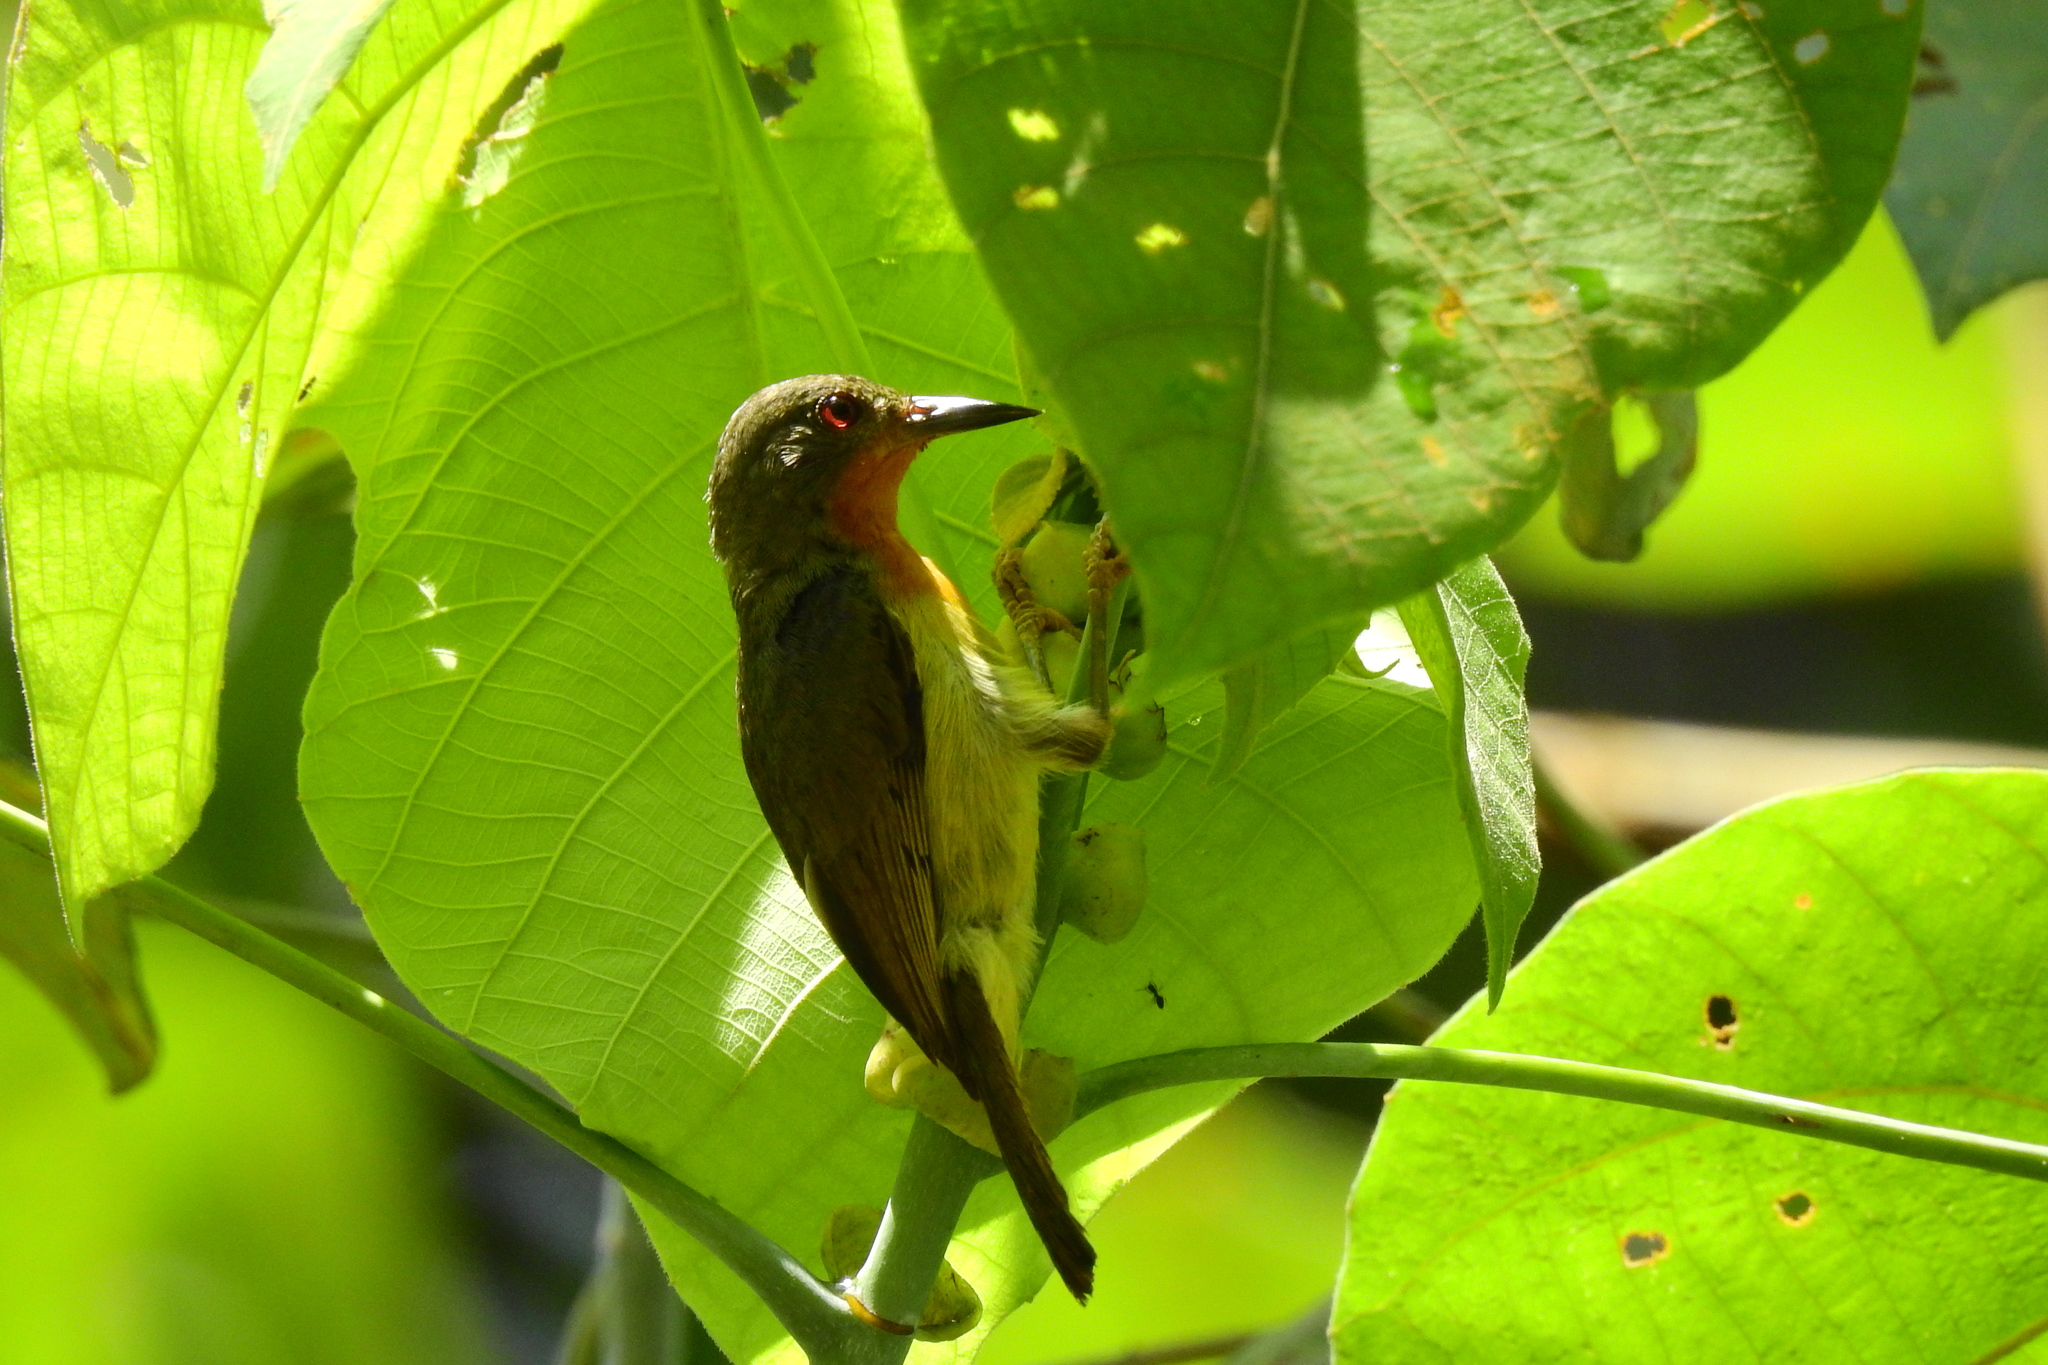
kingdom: Animalia
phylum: Chordata
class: Aves
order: Passeriformes
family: Nectariniidae
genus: Chalcoparia
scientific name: Chalcoparia singalensis
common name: Ruby-cheeked sunbird
